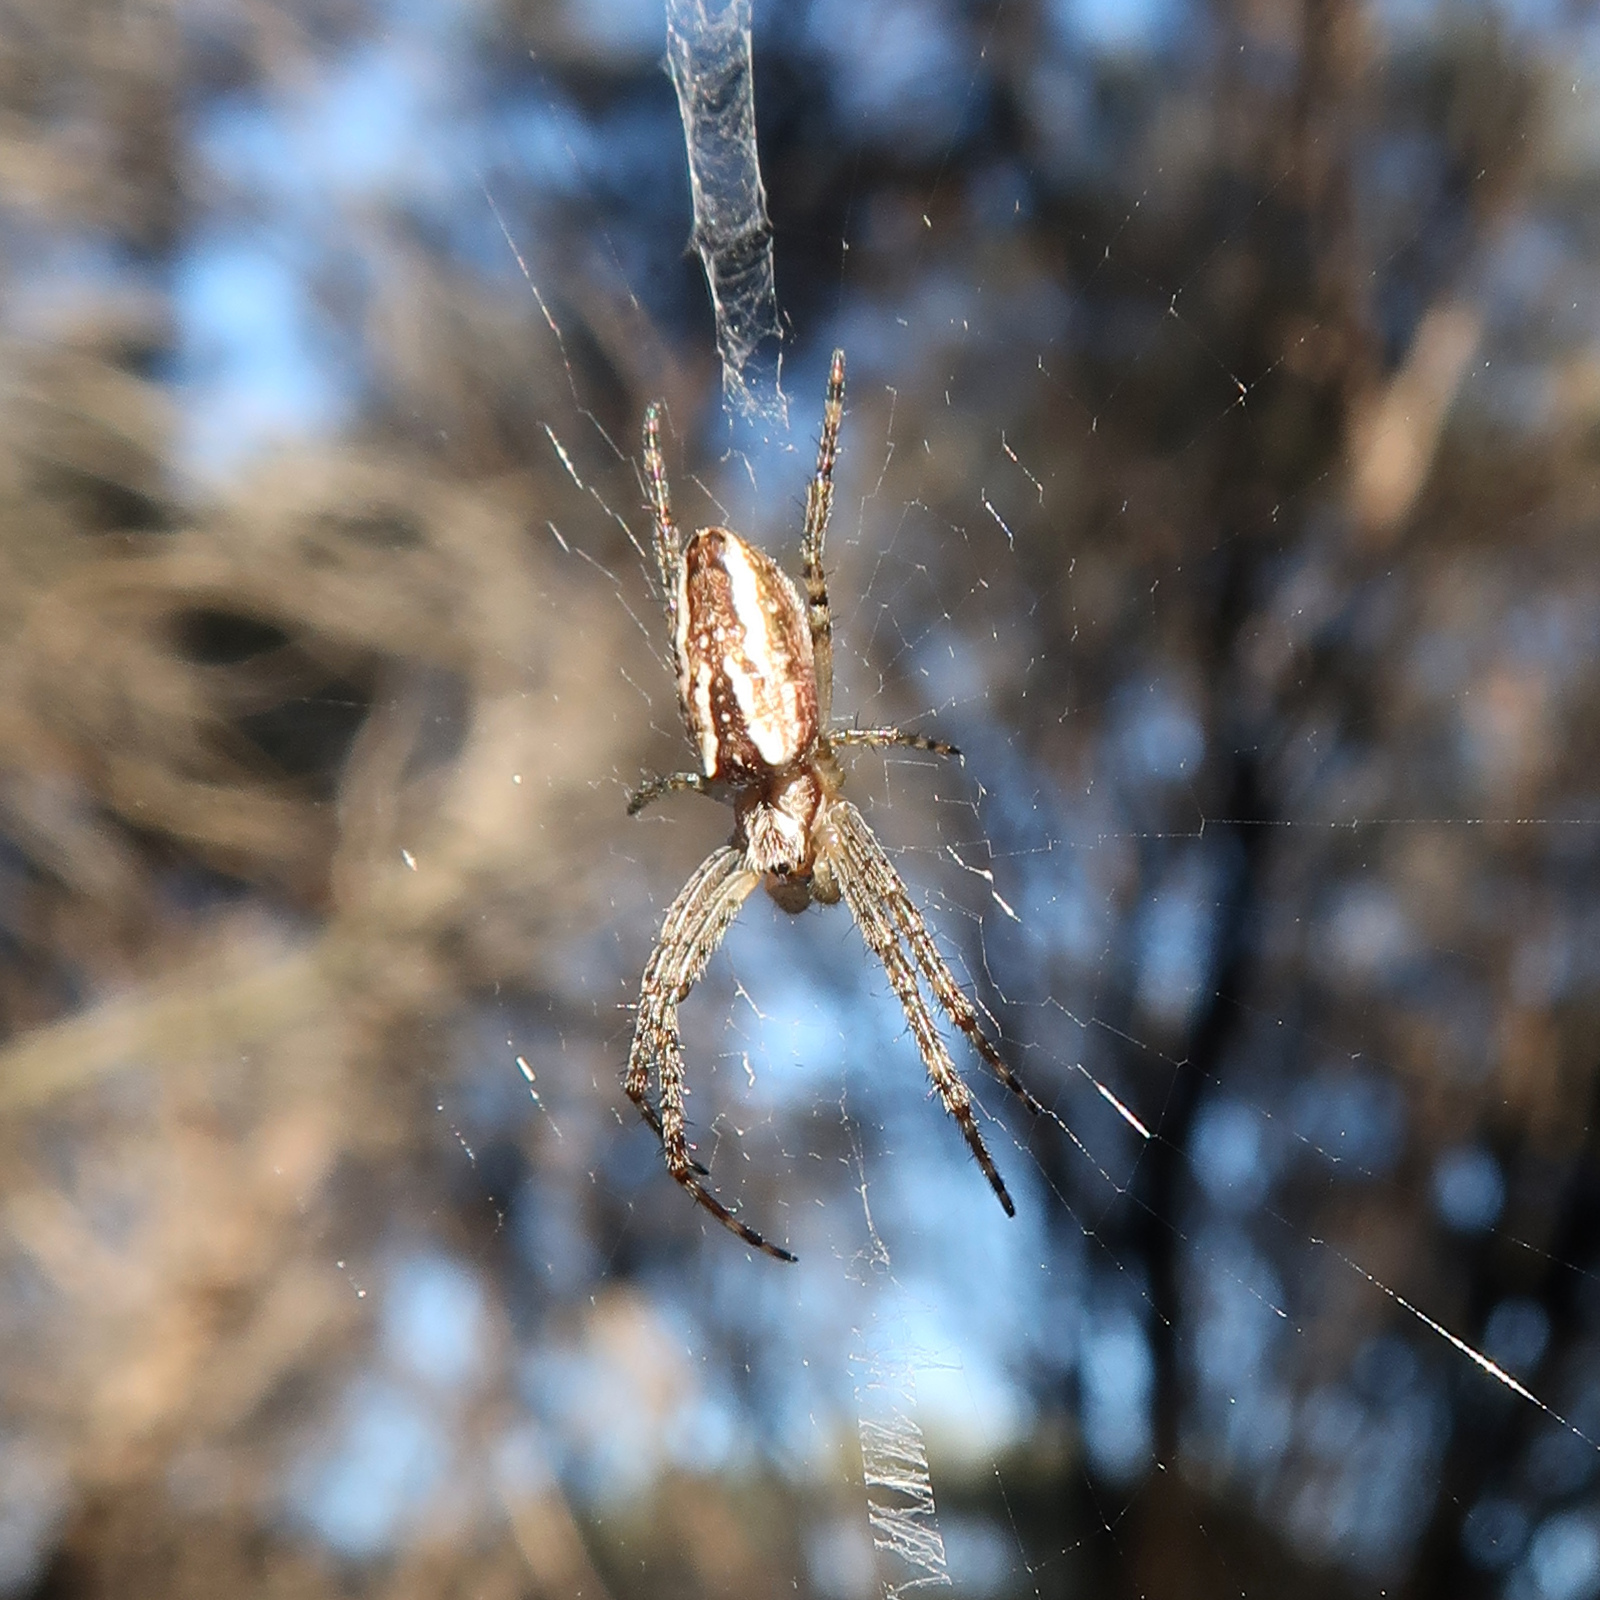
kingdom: Animalia
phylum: Arthropoda
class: Arachnida
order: Araneae
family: Araneidae
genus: Plebs
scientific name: Plebs bradleyi
